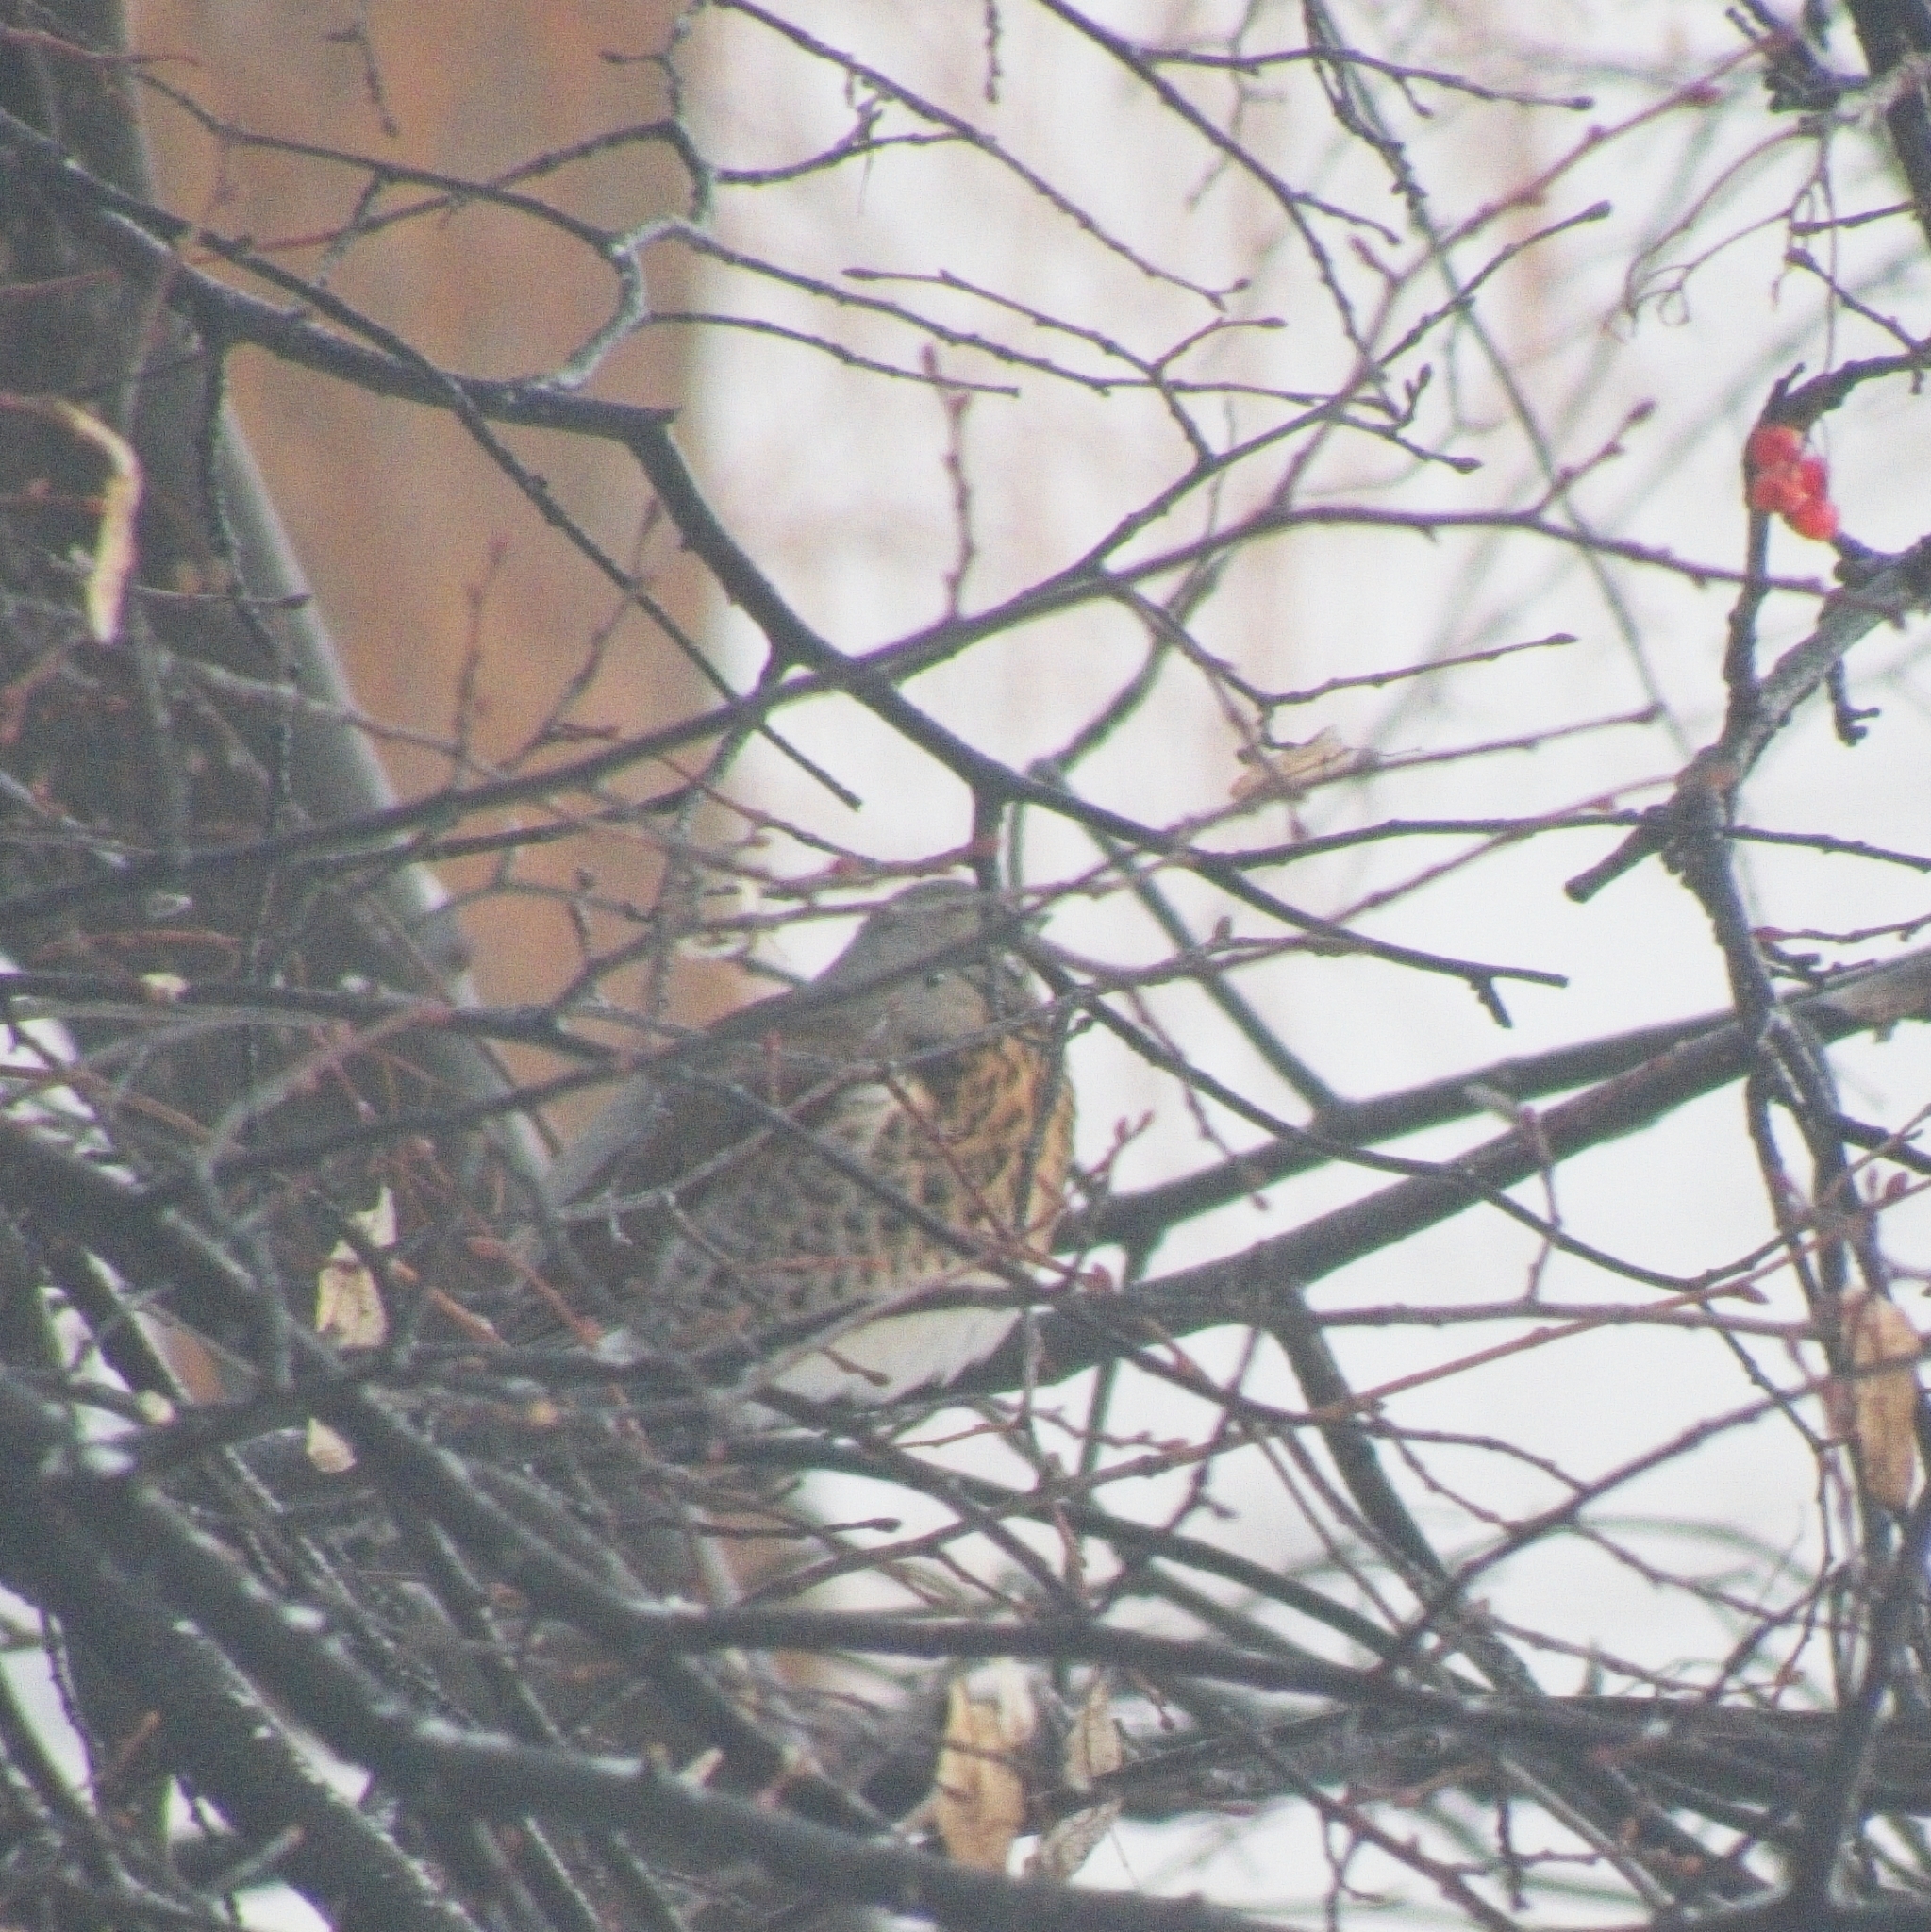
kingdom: Animalia
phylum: Chordata
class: Aves
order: Passeriformes
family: Turdidae
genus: Turdus
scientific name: Turdus pilaris
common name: Fieldfare
